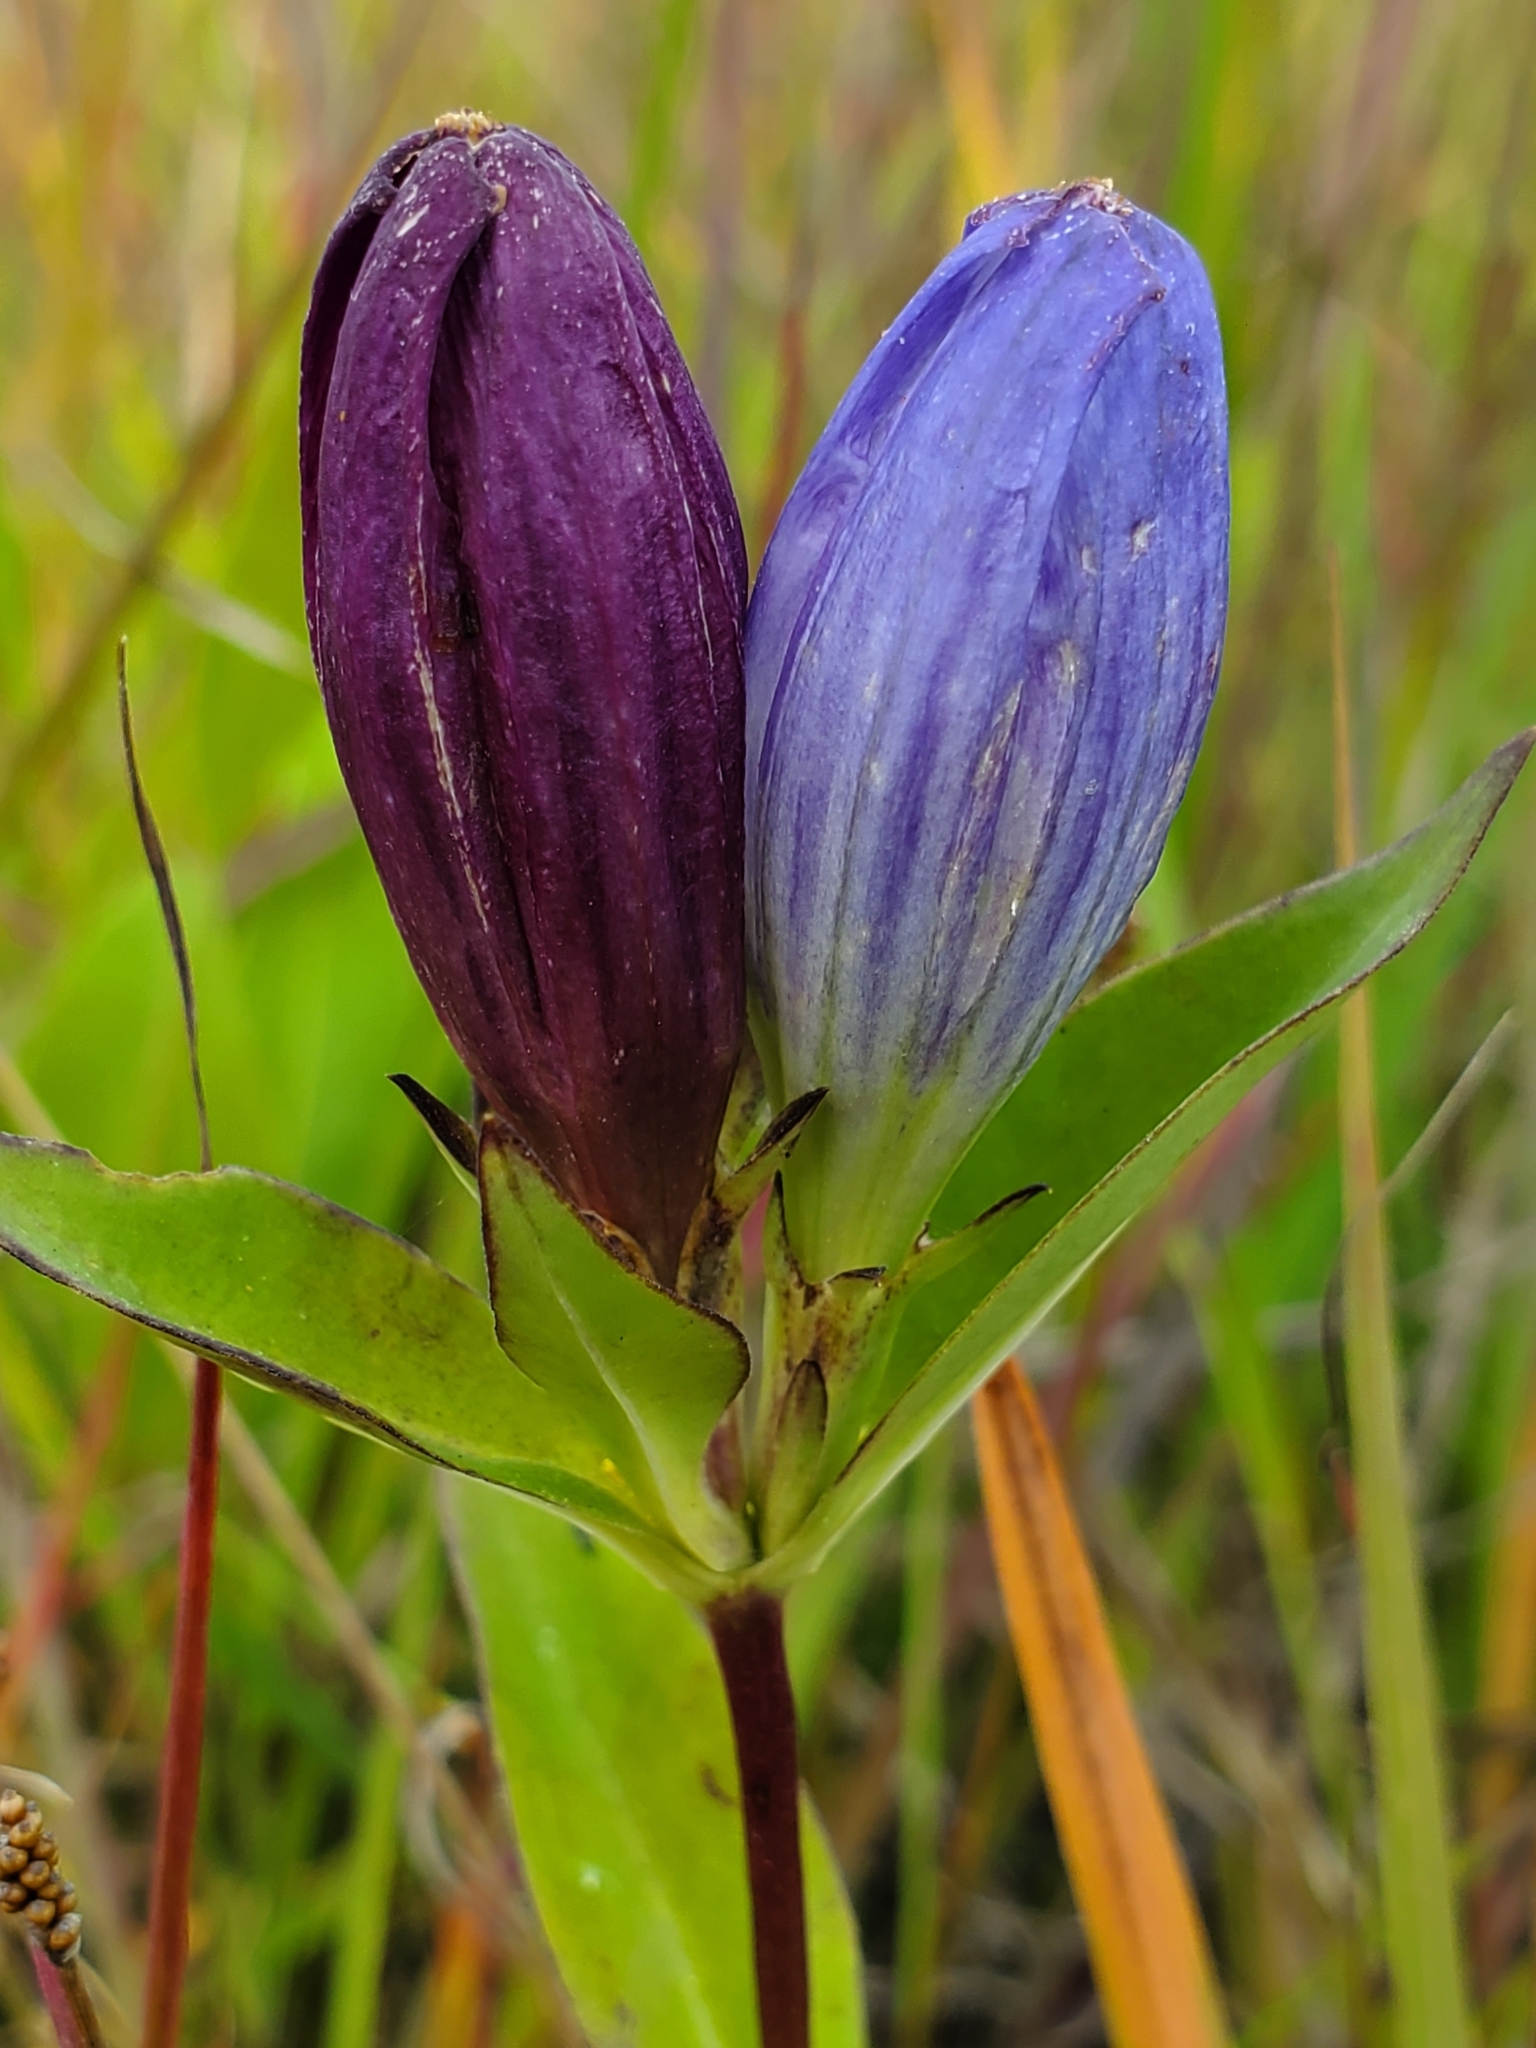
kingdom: Plantae
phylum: Tracheophyta
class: Magnoliopsida
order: Gentianales
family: Gentianaceae
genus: Gentiana
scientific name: Gentiana andrewsii
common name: Bottle gentian
